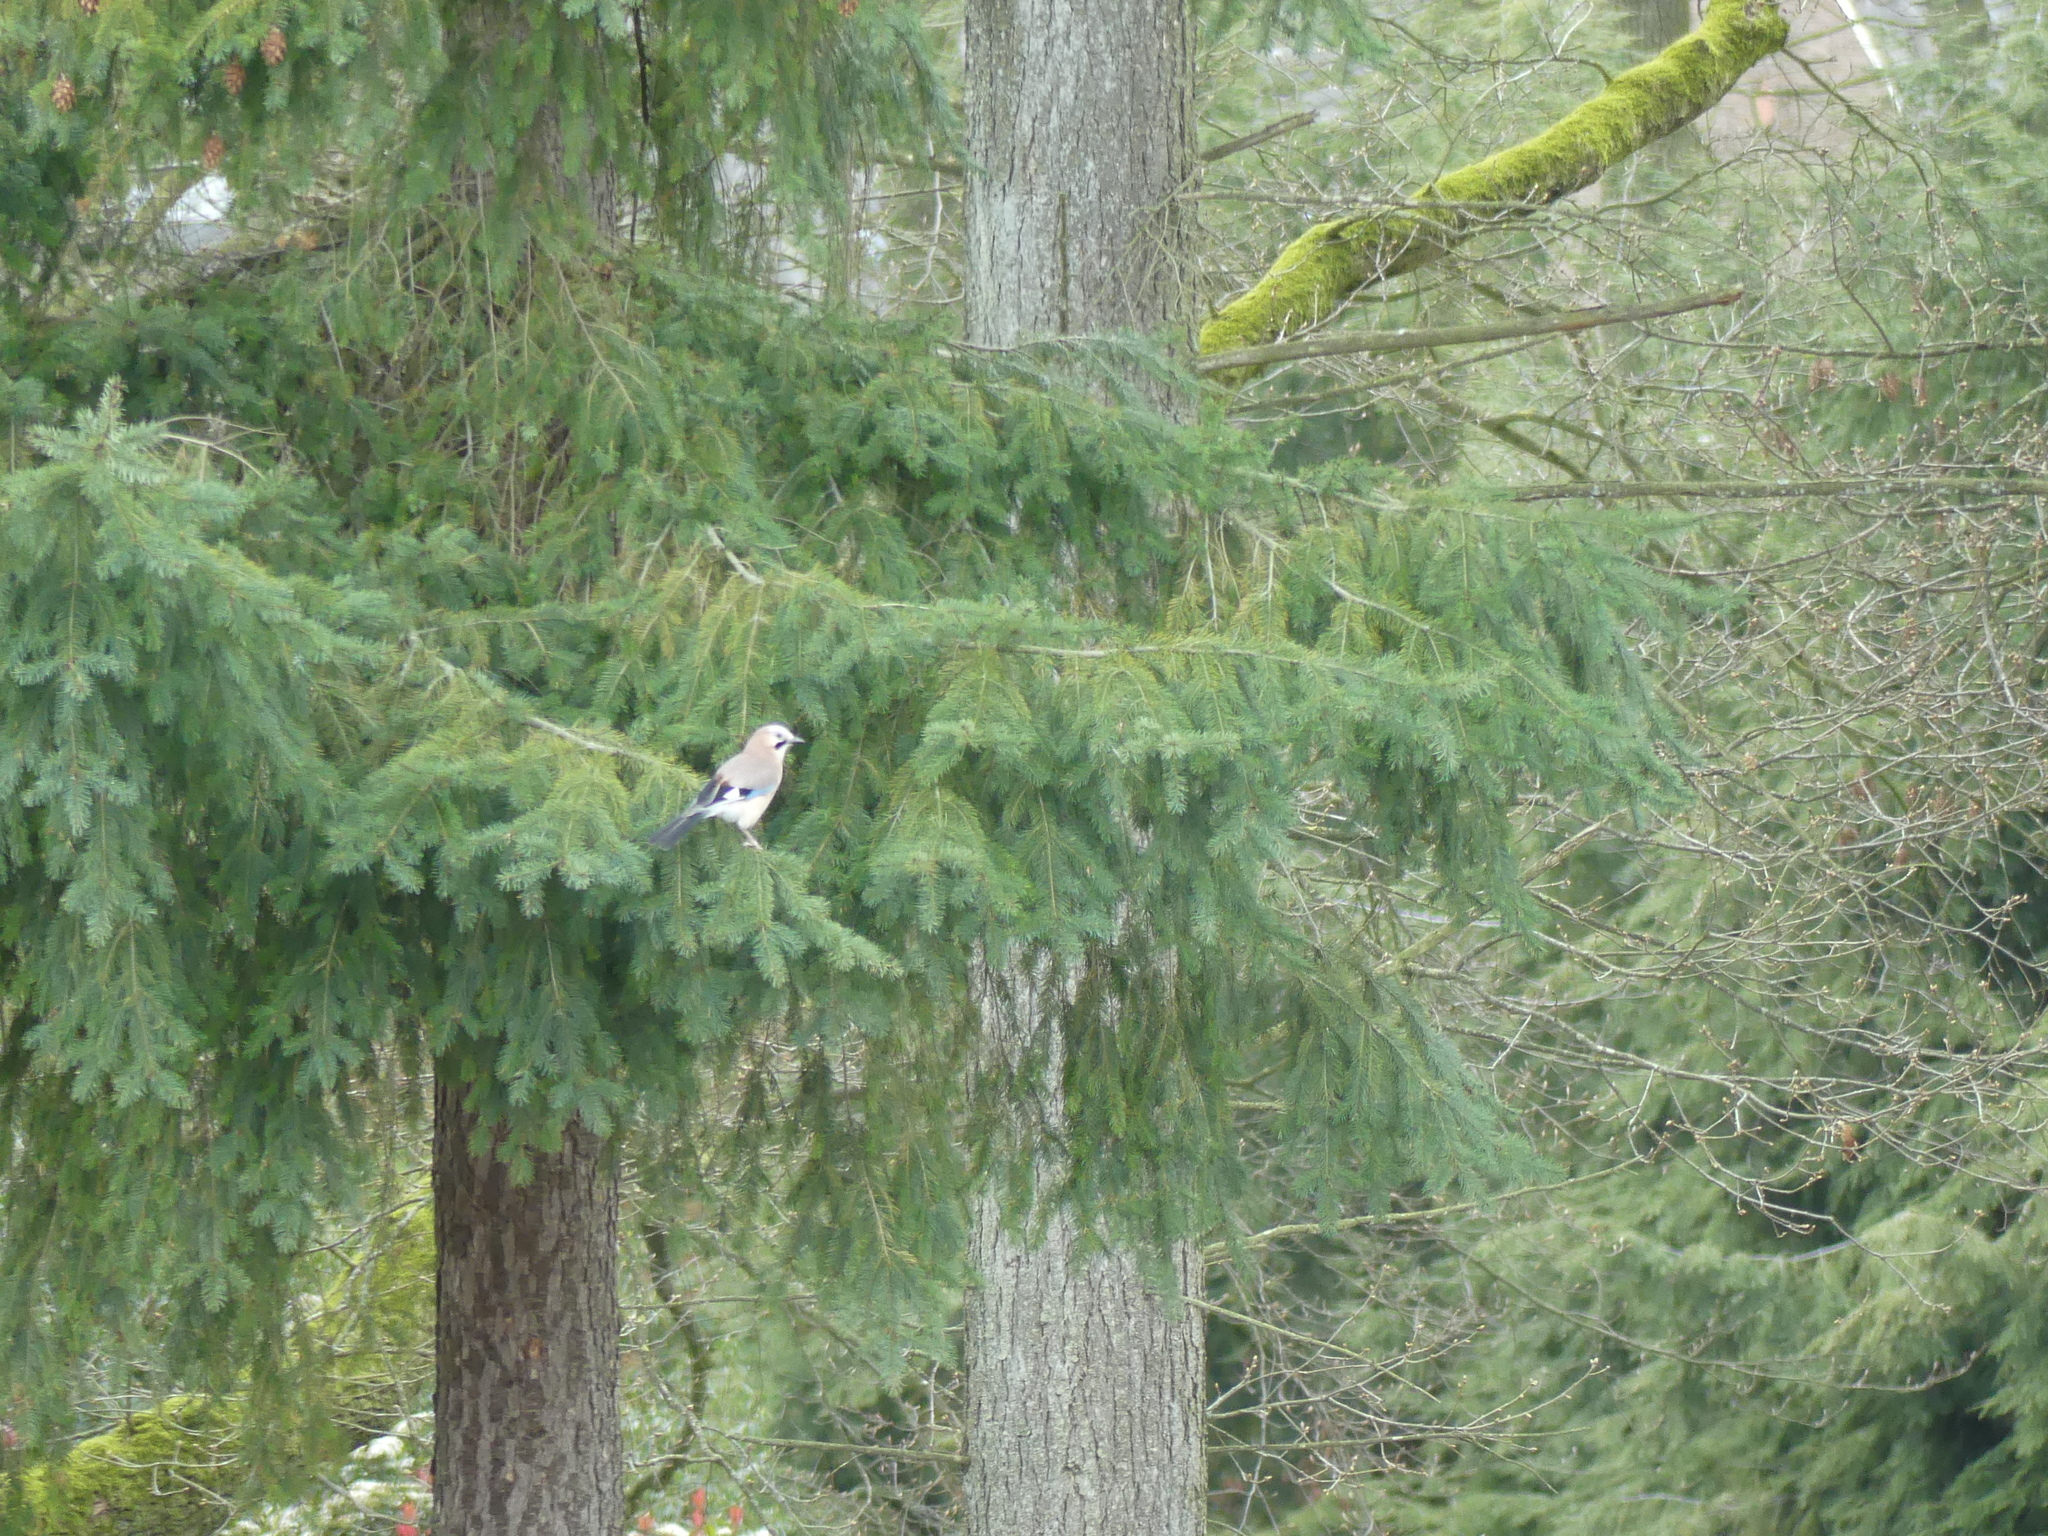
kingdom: Animalia
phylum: Chordata
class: Aves
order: Passeriformes
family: Corvidae
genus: Garrulus
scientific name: Garrulus glandarius
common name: Eurasian jay
